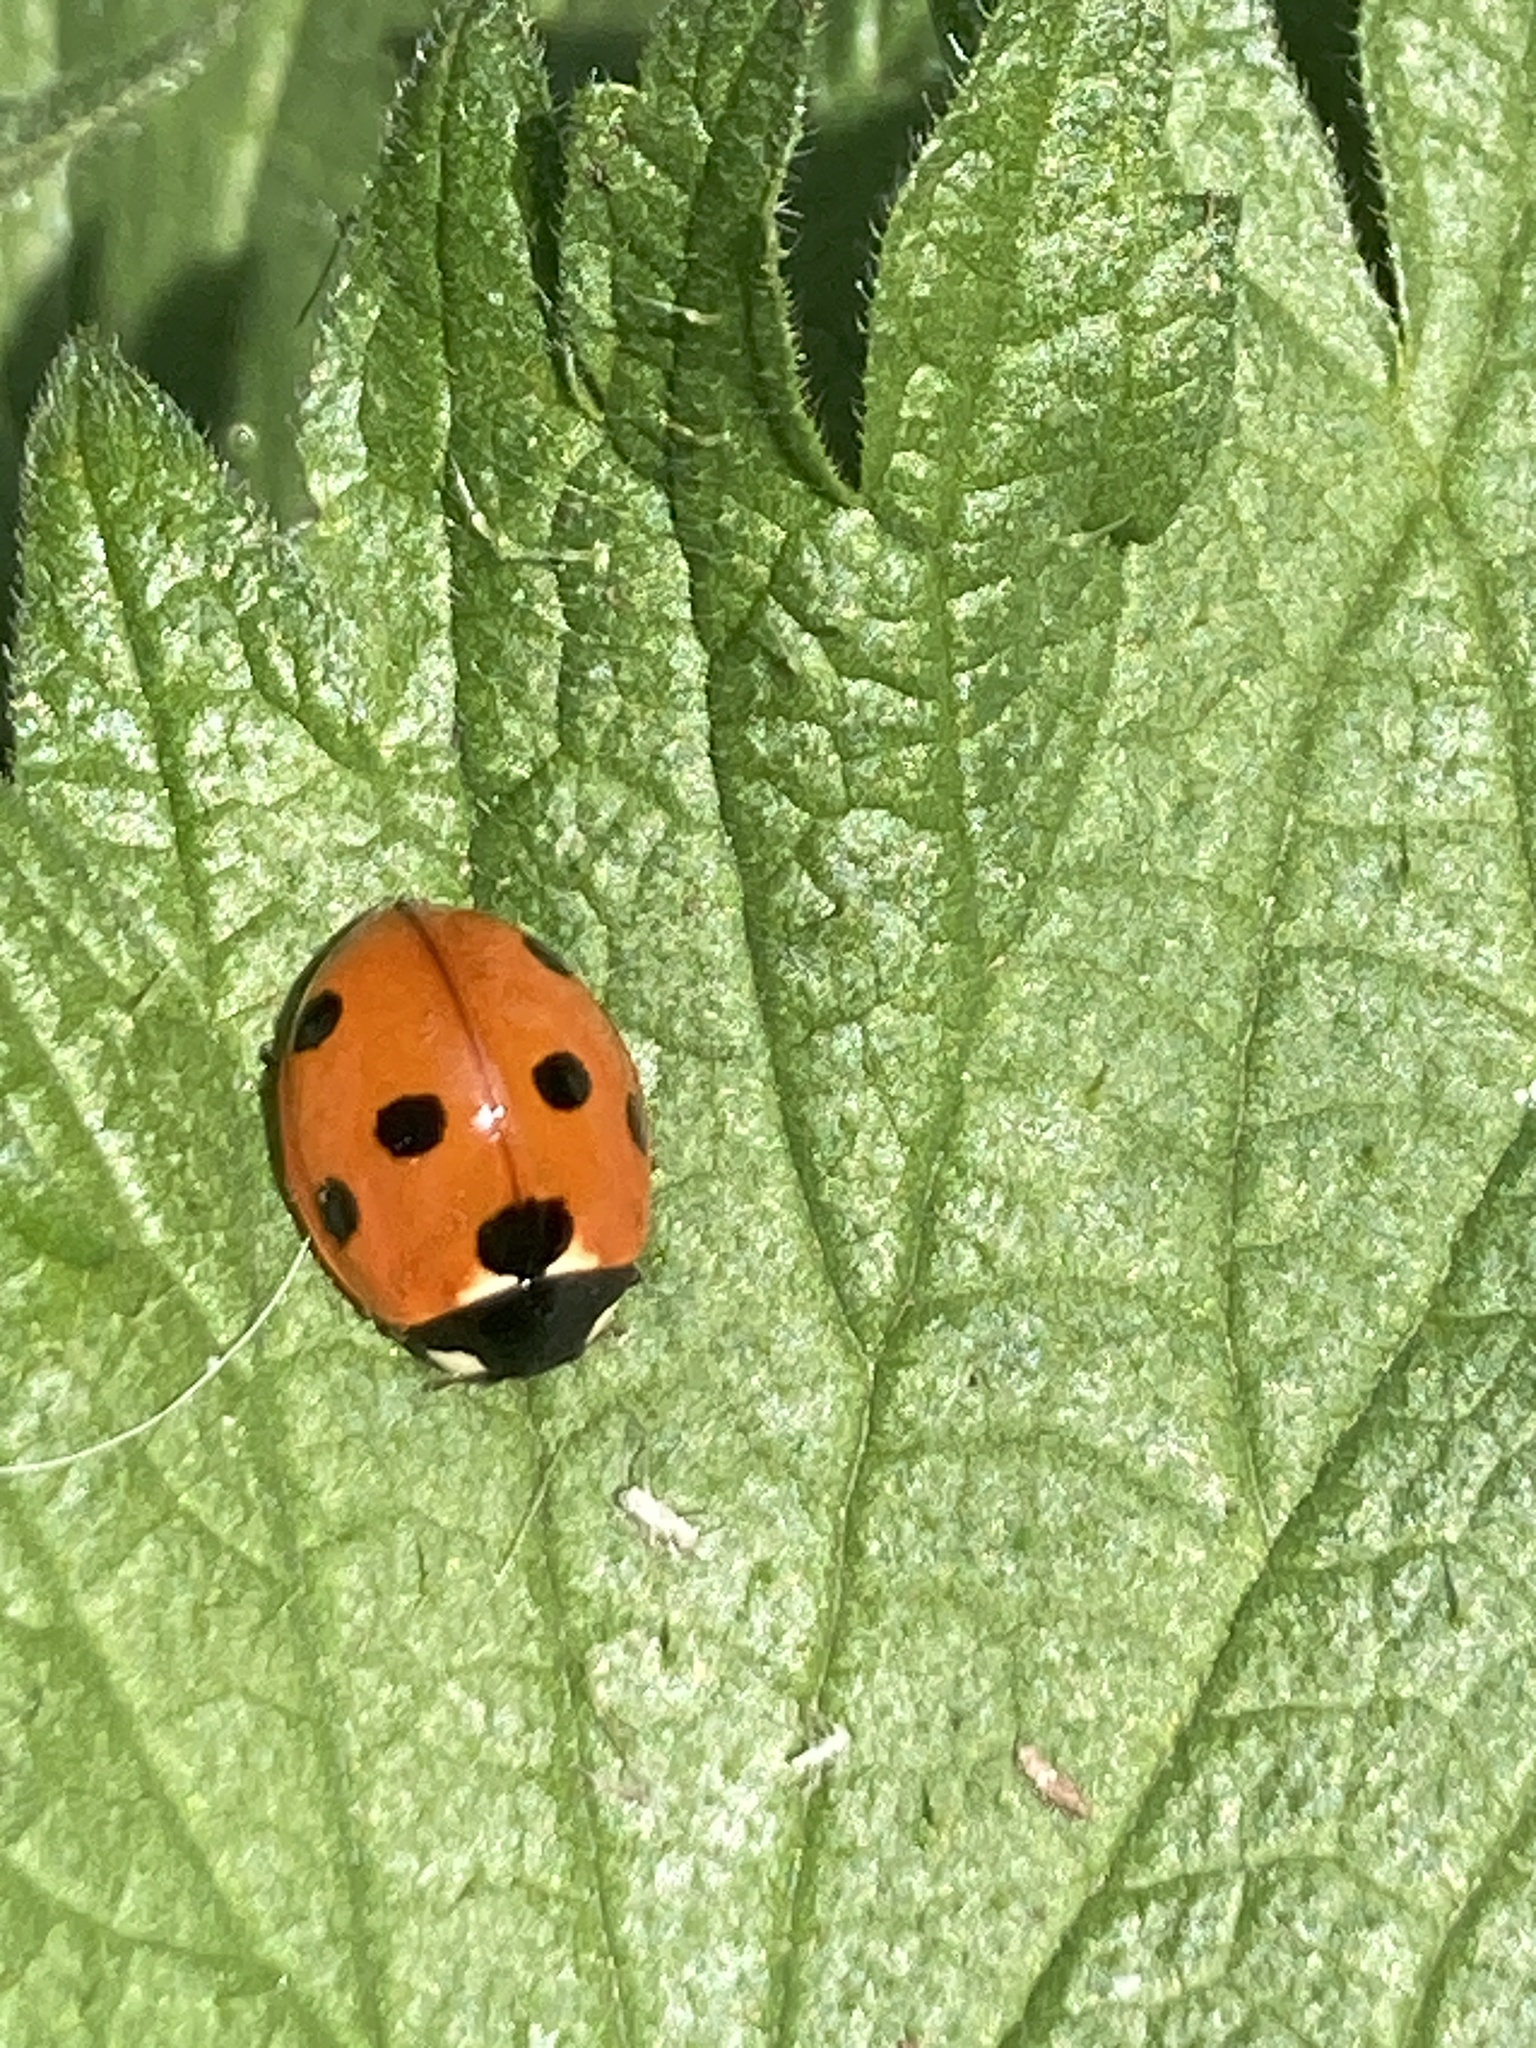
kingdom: Animalia
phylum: Arthropoda
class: Insecta
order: Coleoptera
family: Coccinellidae
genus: Coccinella
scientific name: Coccinella septempunctata
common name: Sevenspotted lady beetle
